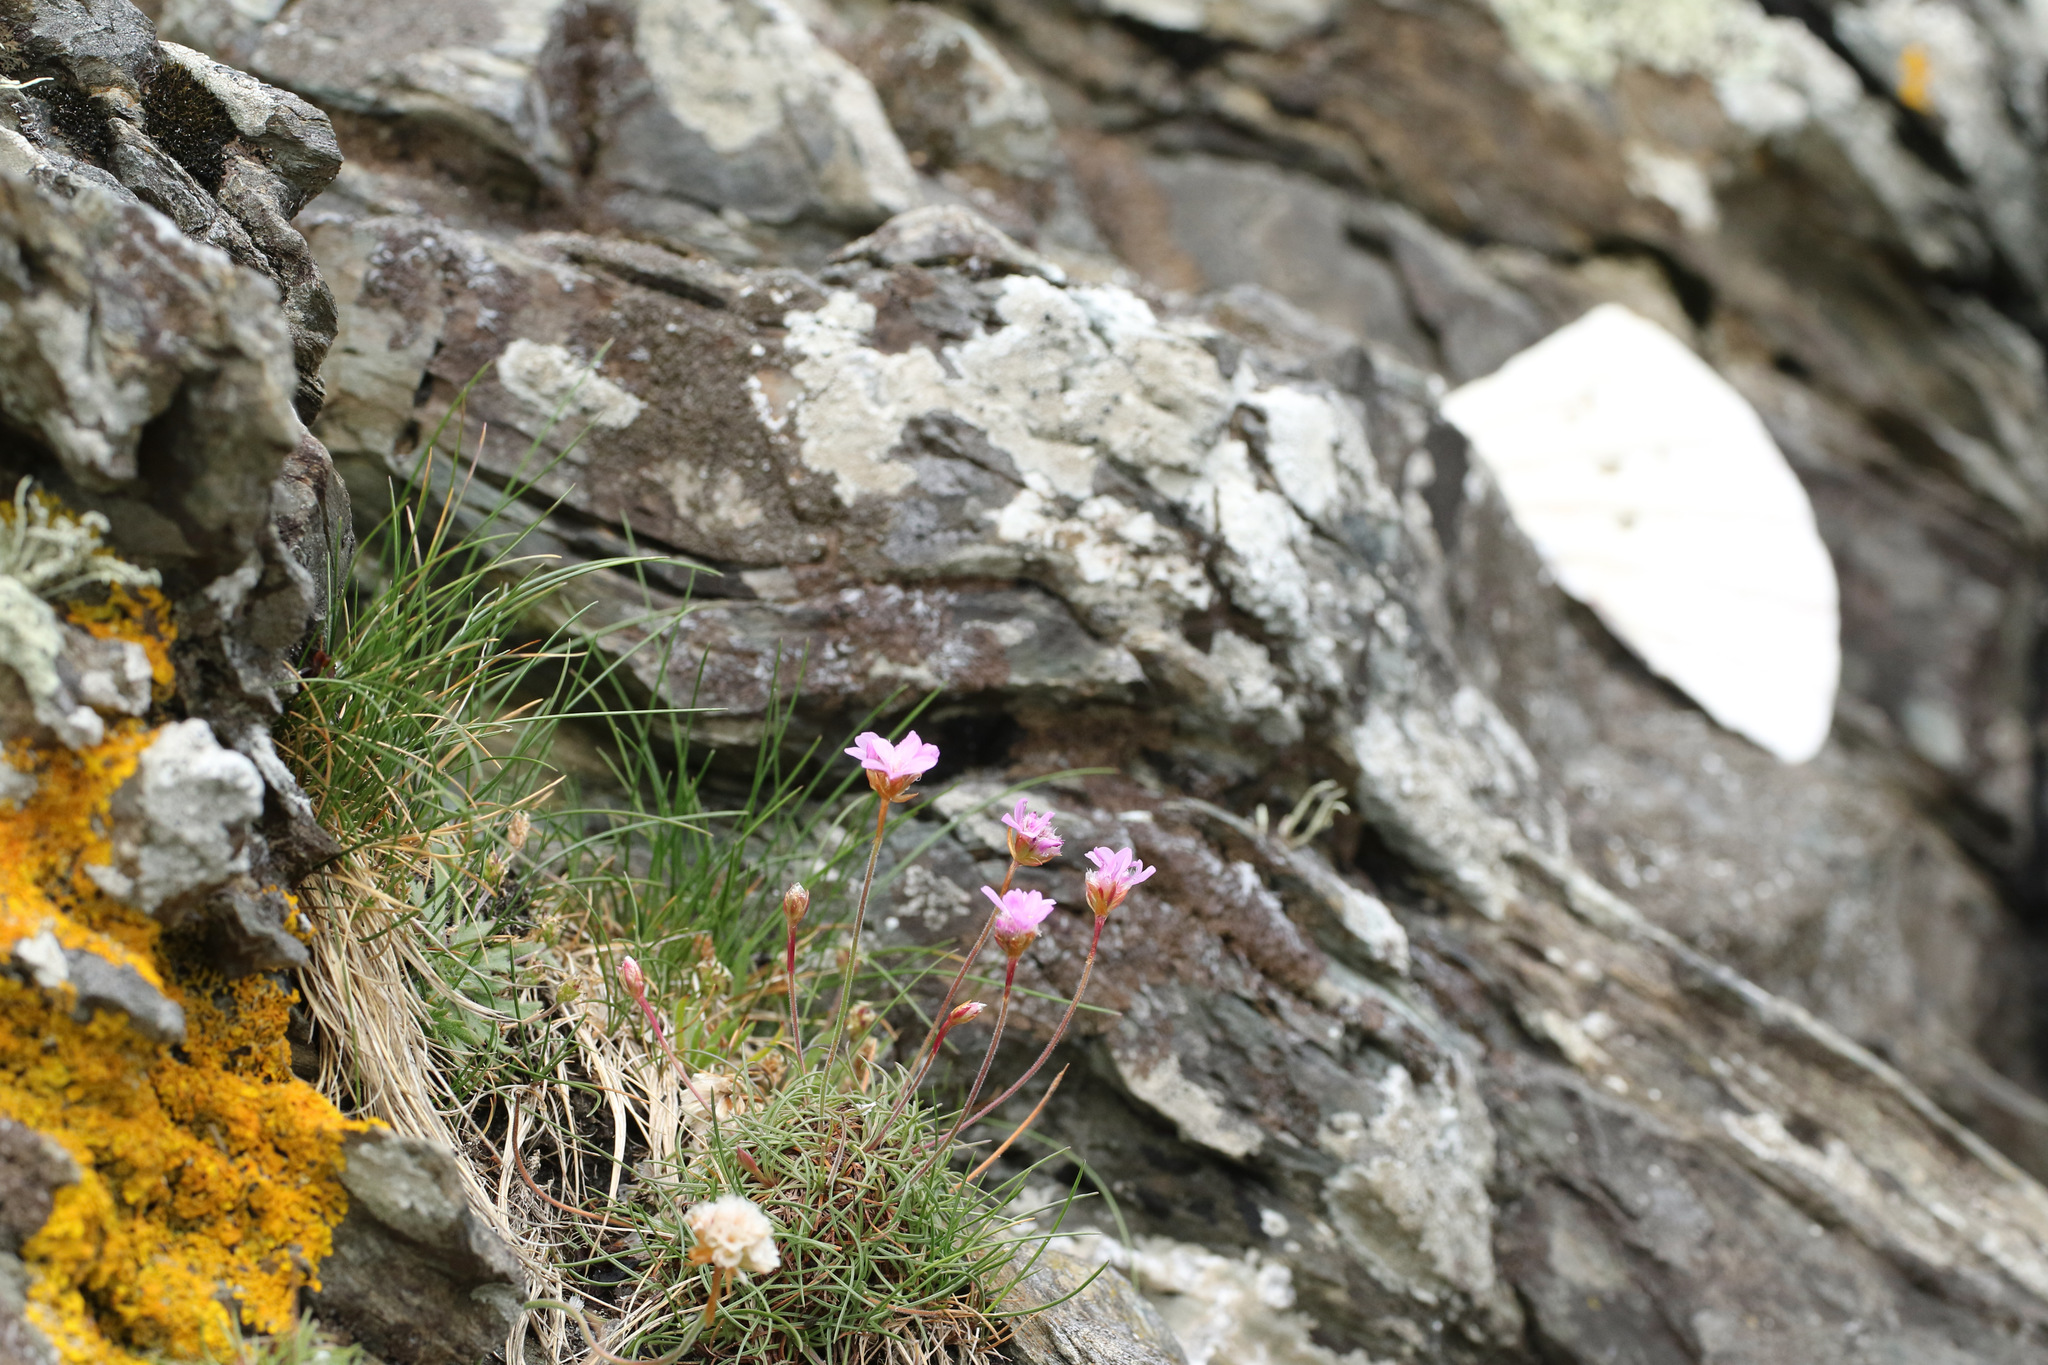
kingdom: Plantae
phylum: Tracheophyta
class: Magnoliopsida
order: Caryophyllales
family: Plumbaginaceae
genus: Armeria
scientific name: Armeria maritima
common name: Thrift
